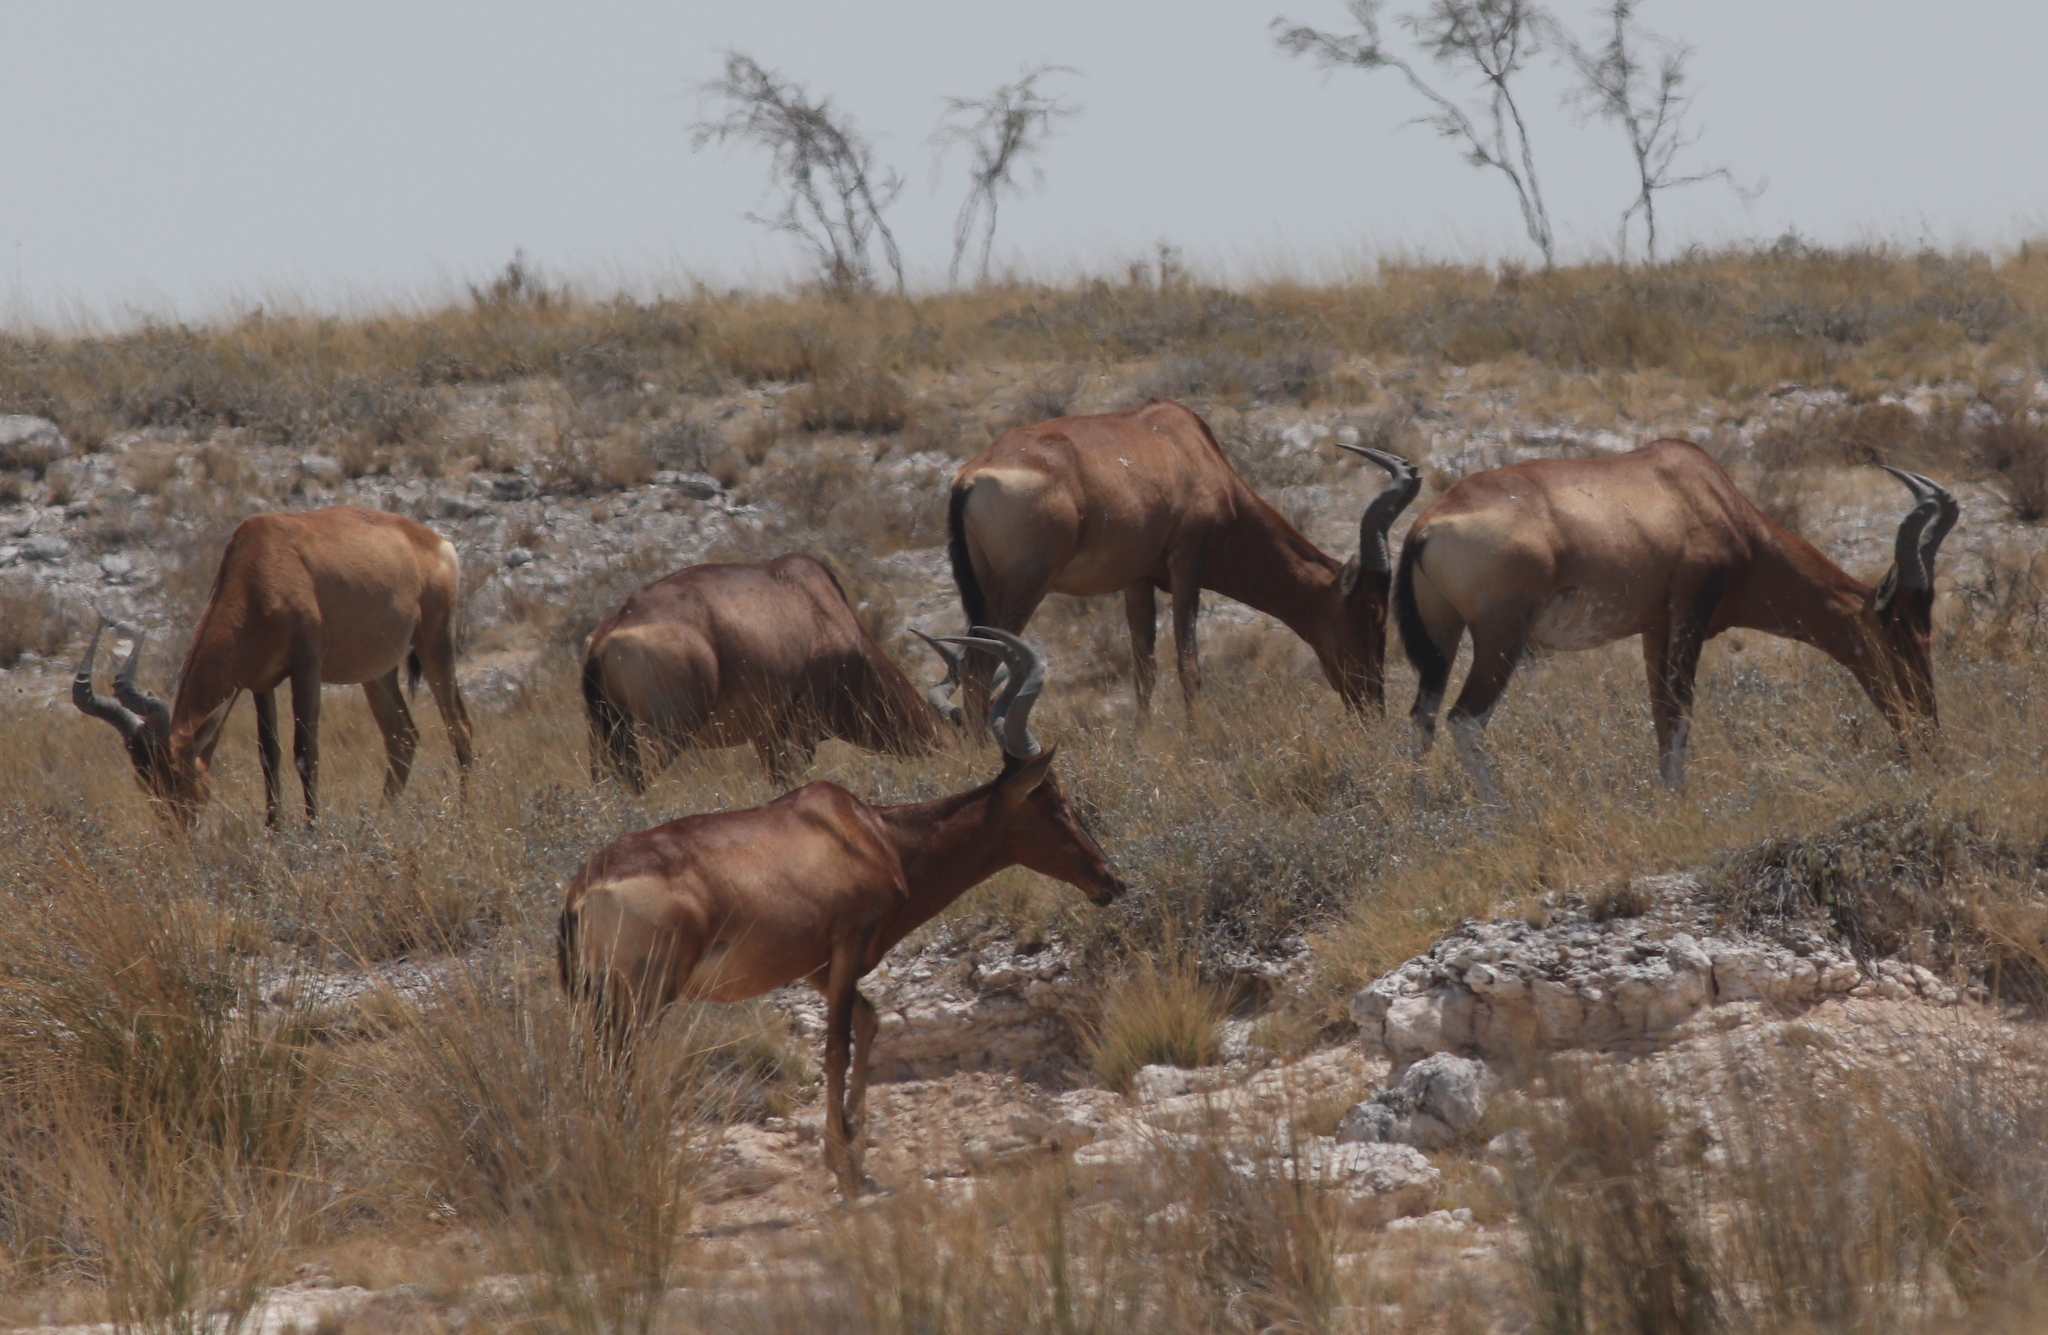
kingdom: Animalia
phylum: Chordata
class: Mammalia
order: Artiodactyla
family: Bovidae
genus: Alcelaphus
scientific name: Alcelaphus caama
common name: Red hartebeest
